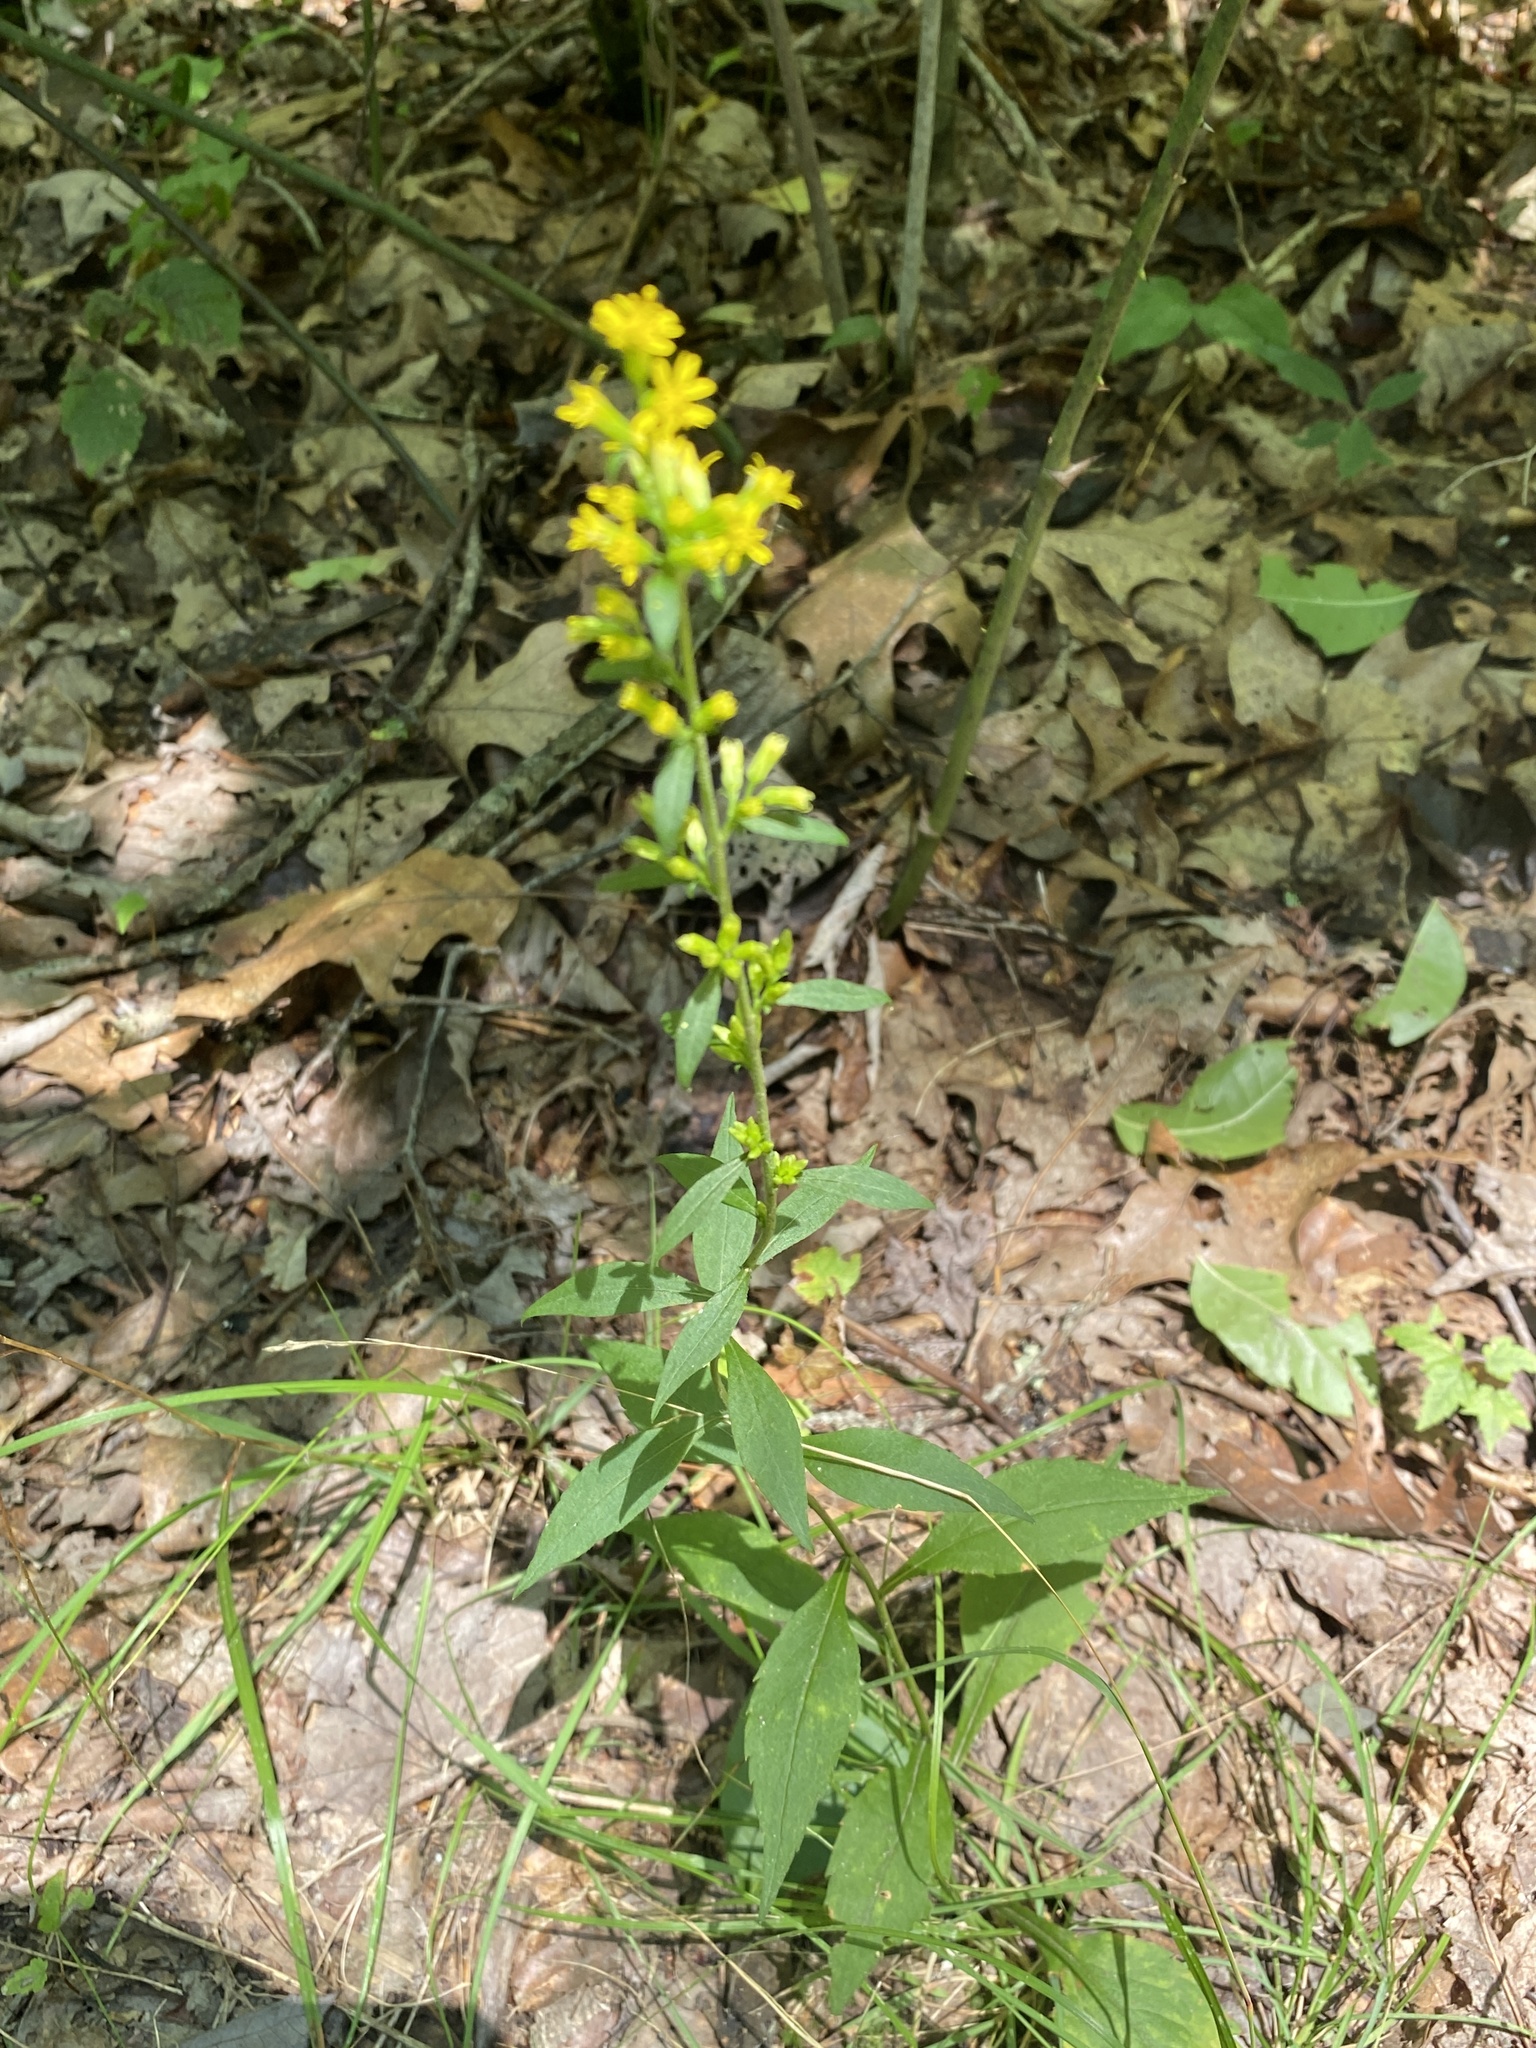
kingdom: Plantae
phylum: Tracheophyta
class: Magnoliopsida
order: Asterales
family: Asteraceae
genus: Solidago
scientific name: Solidago caesia
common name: Woodland goldenrod
